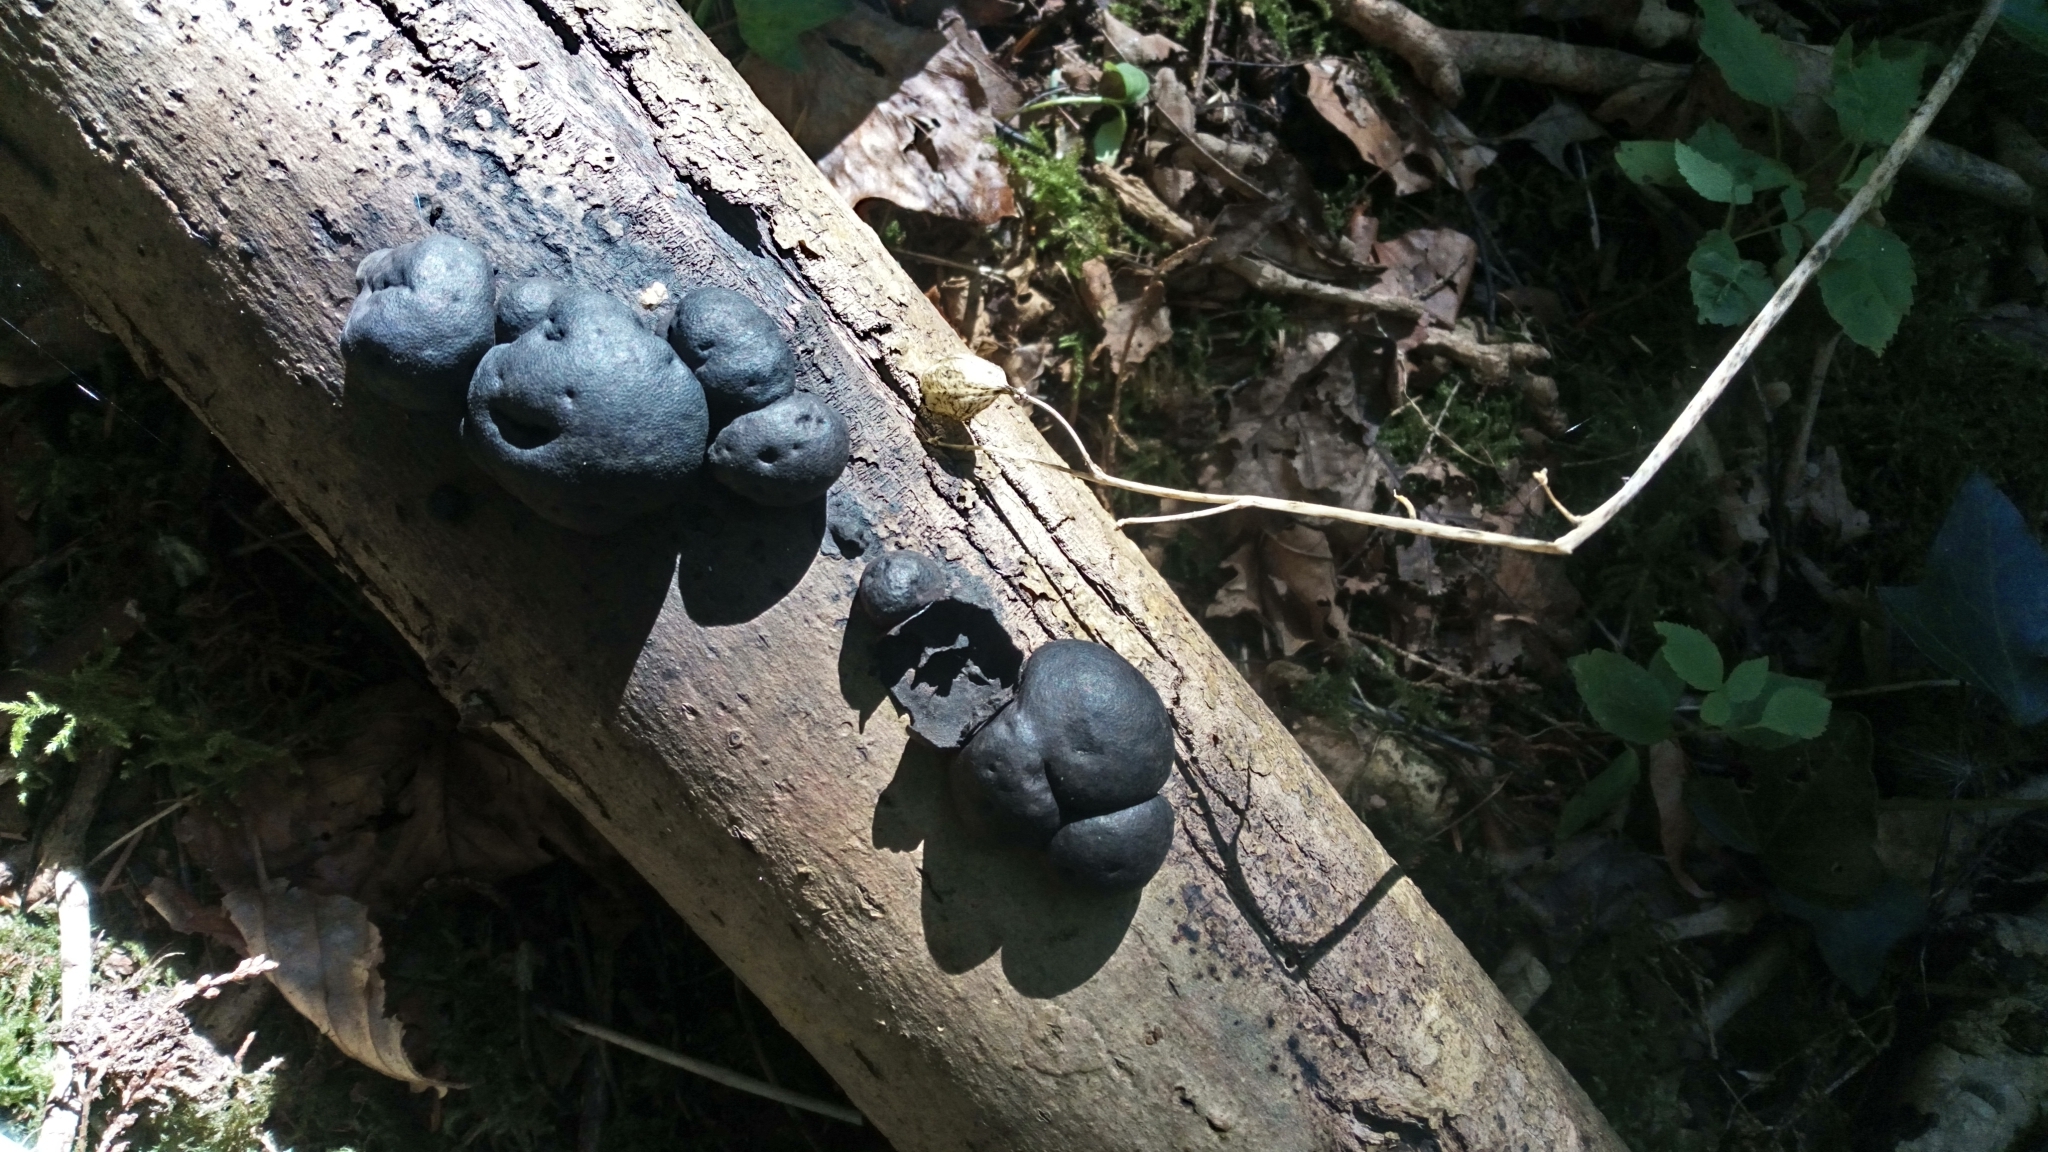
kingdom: Fungi
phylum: Ascomycota
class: Sordariomycetes
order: Xylariales
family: Hypoxylaceae
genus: Daldinia
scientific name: Daldinia concentrica
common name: Cramp balls
